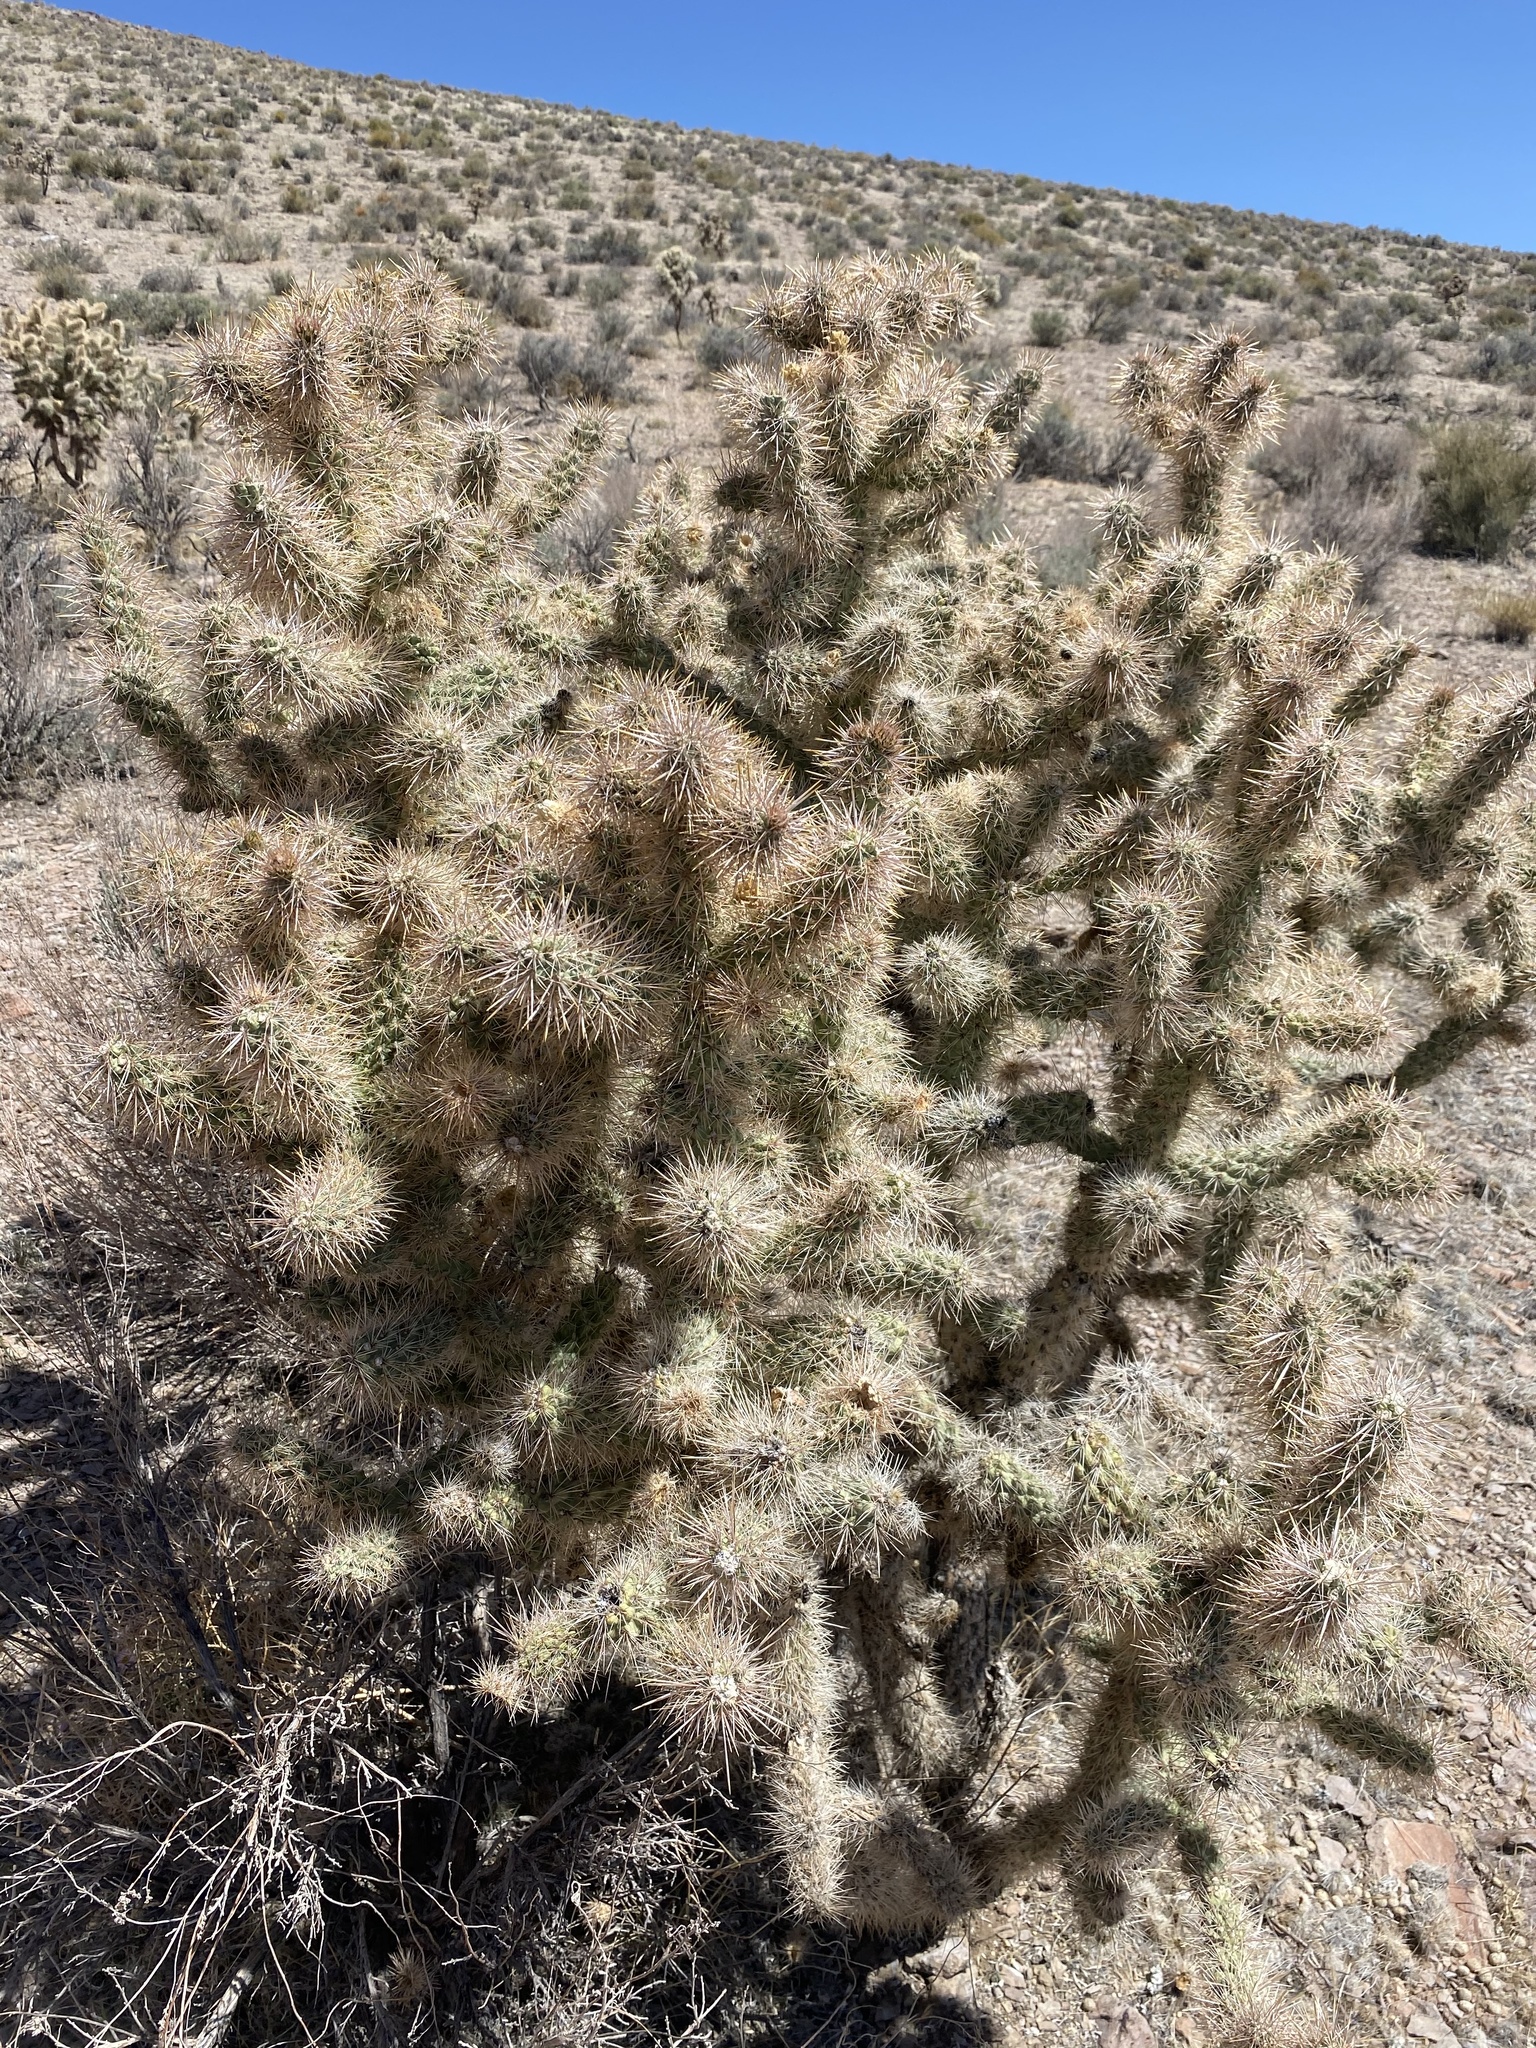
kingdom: Plantae
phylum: Tracheophyta
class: Magnoliopsida
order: Caryophyllales
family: Cactaceae
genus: Cylindropuntia
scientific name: Cylindropuntia echinocarpa
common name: Ground cholla
